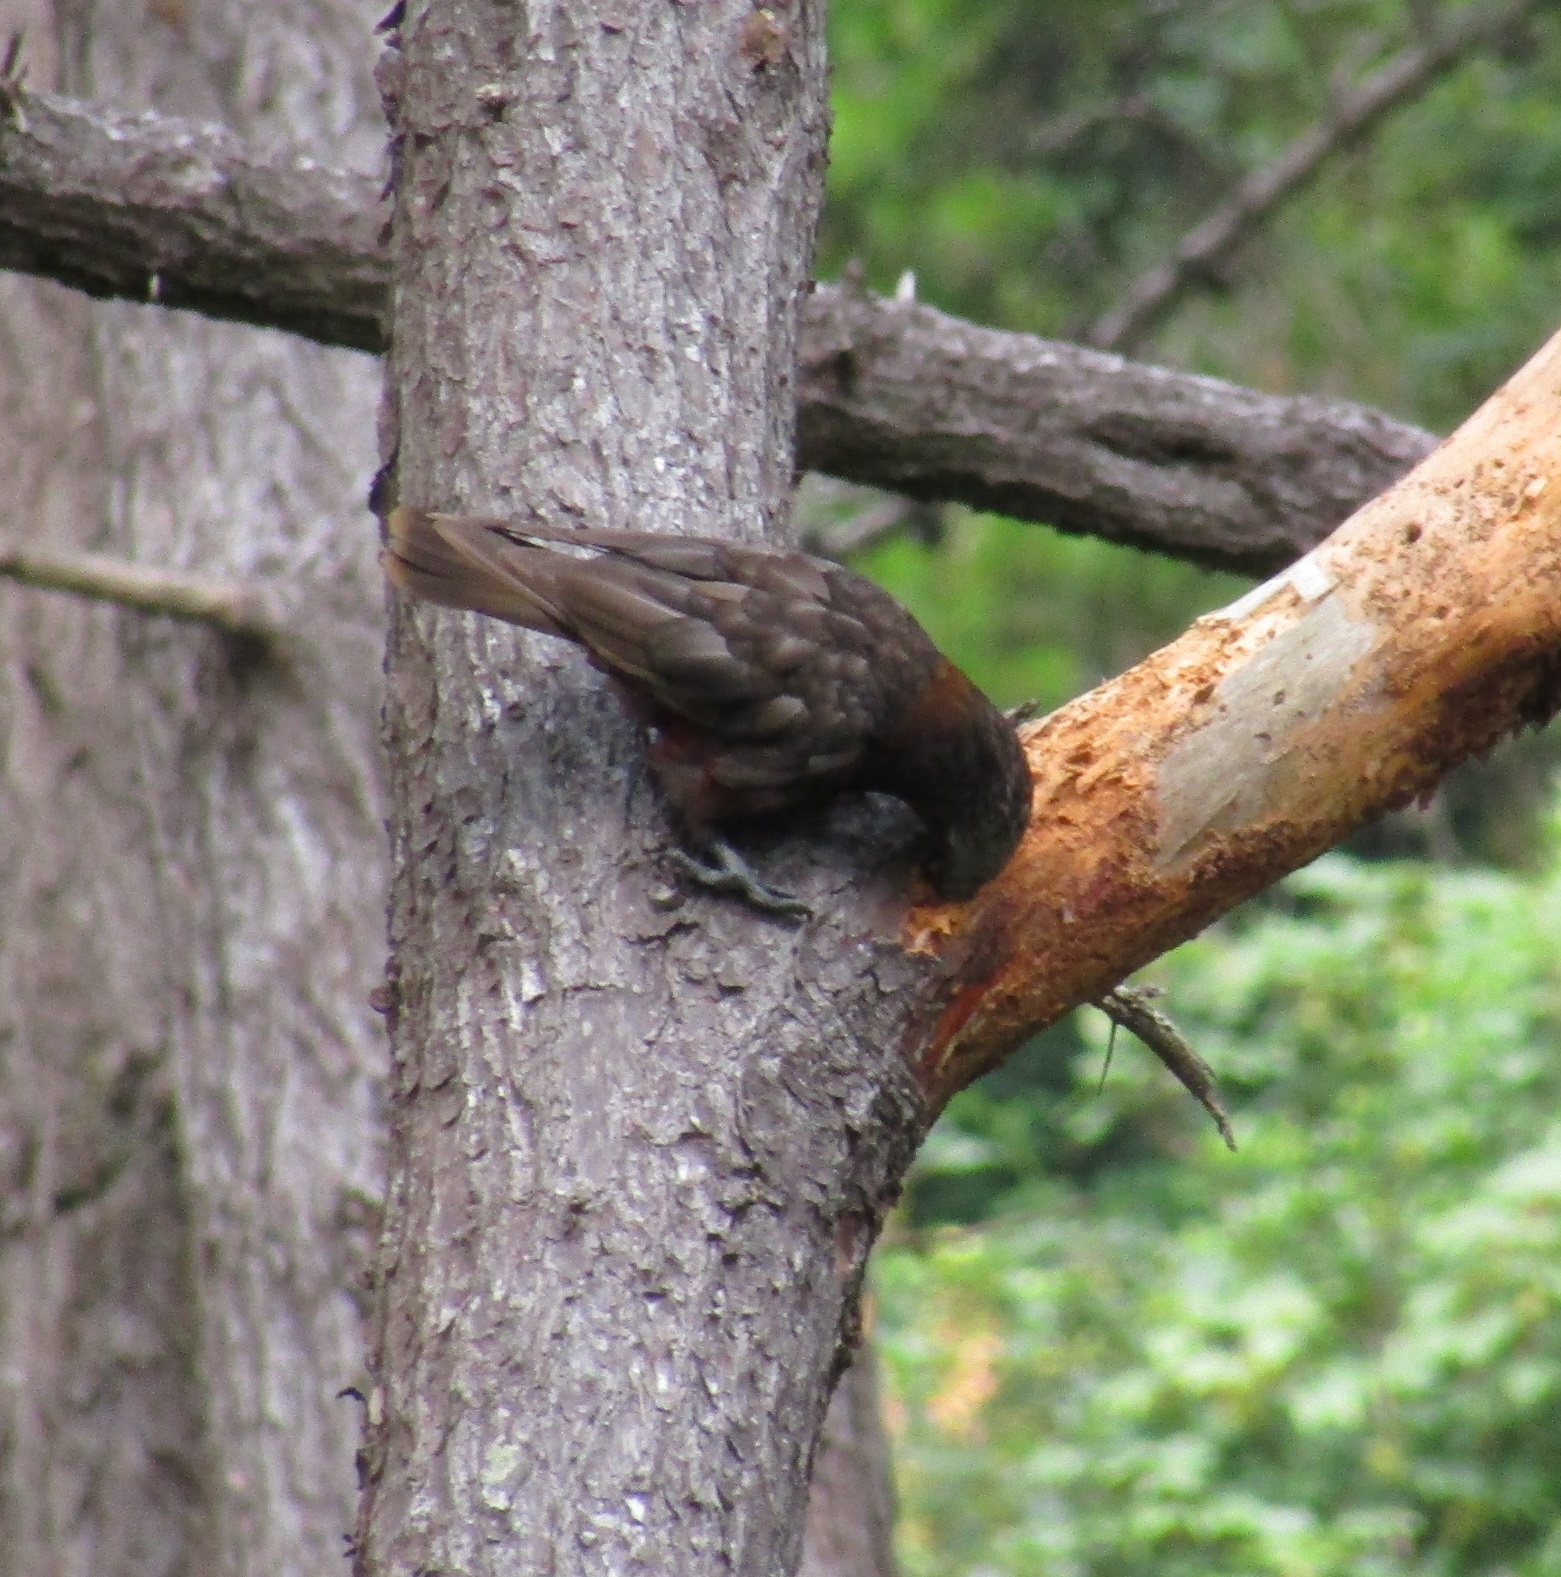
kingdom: Animalia
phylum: Chordata
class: Aves
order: Psittaciformes
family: Psittacidae
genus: Nestor
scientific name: Nestor meridionalis
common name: New zealand kaka
